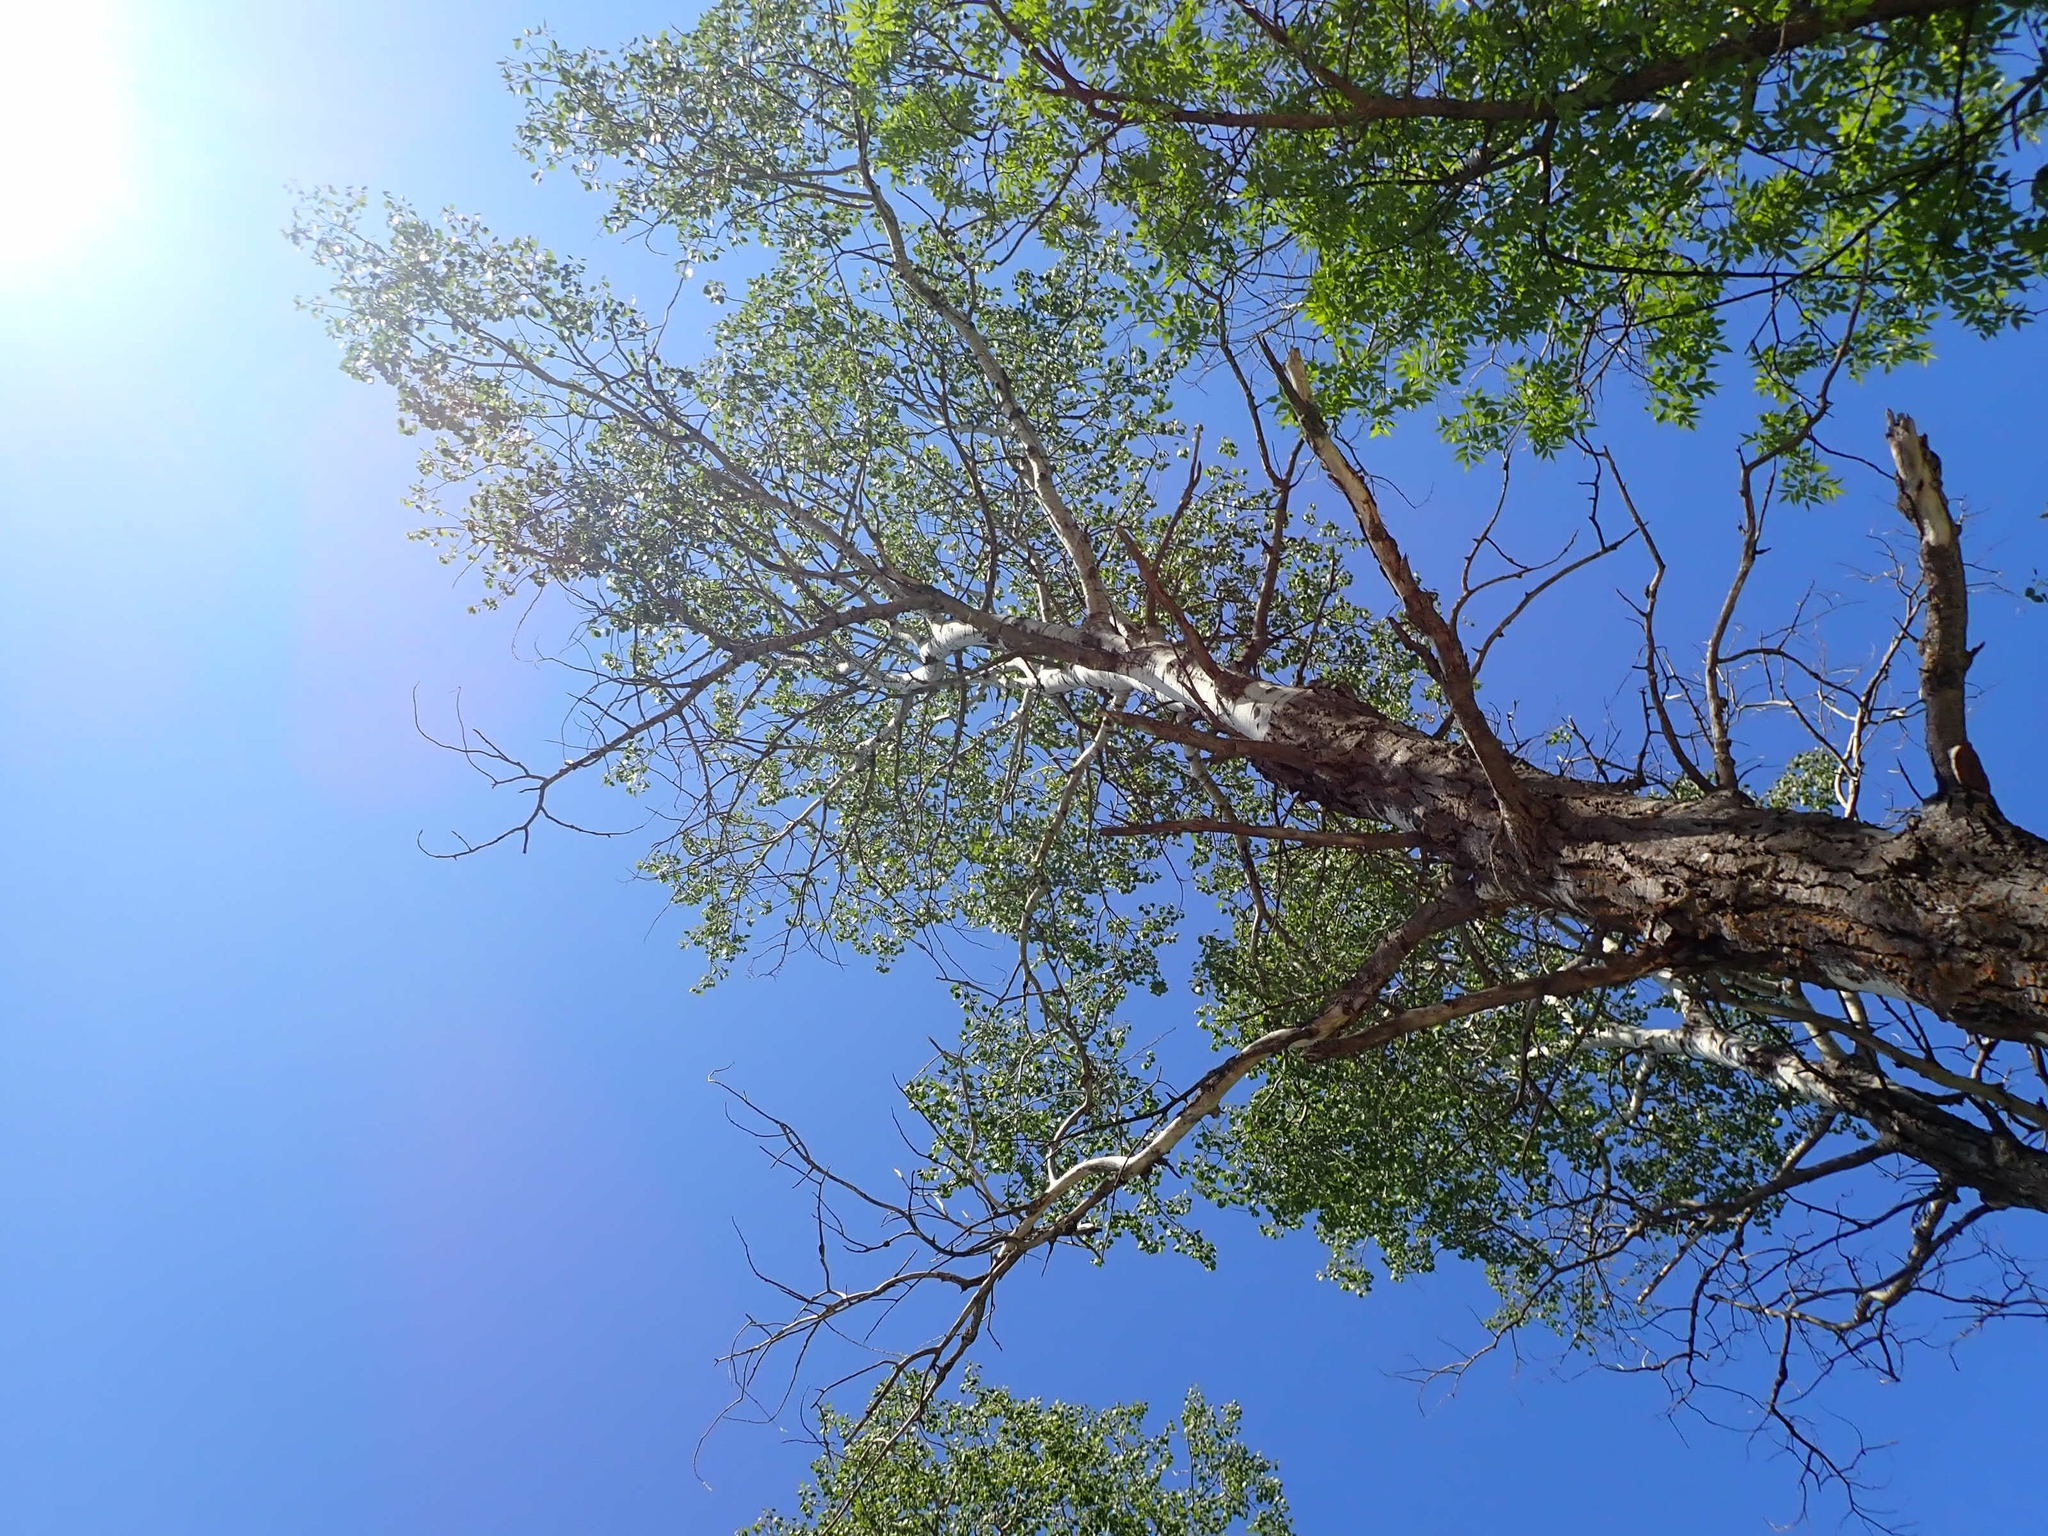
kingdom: Plantae
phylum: Tracheophyta
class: Magnoliopsida
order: Malpighiales
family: Salicaceae
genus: Populus
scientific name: Populus tremuloides
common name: Quaking aspen
